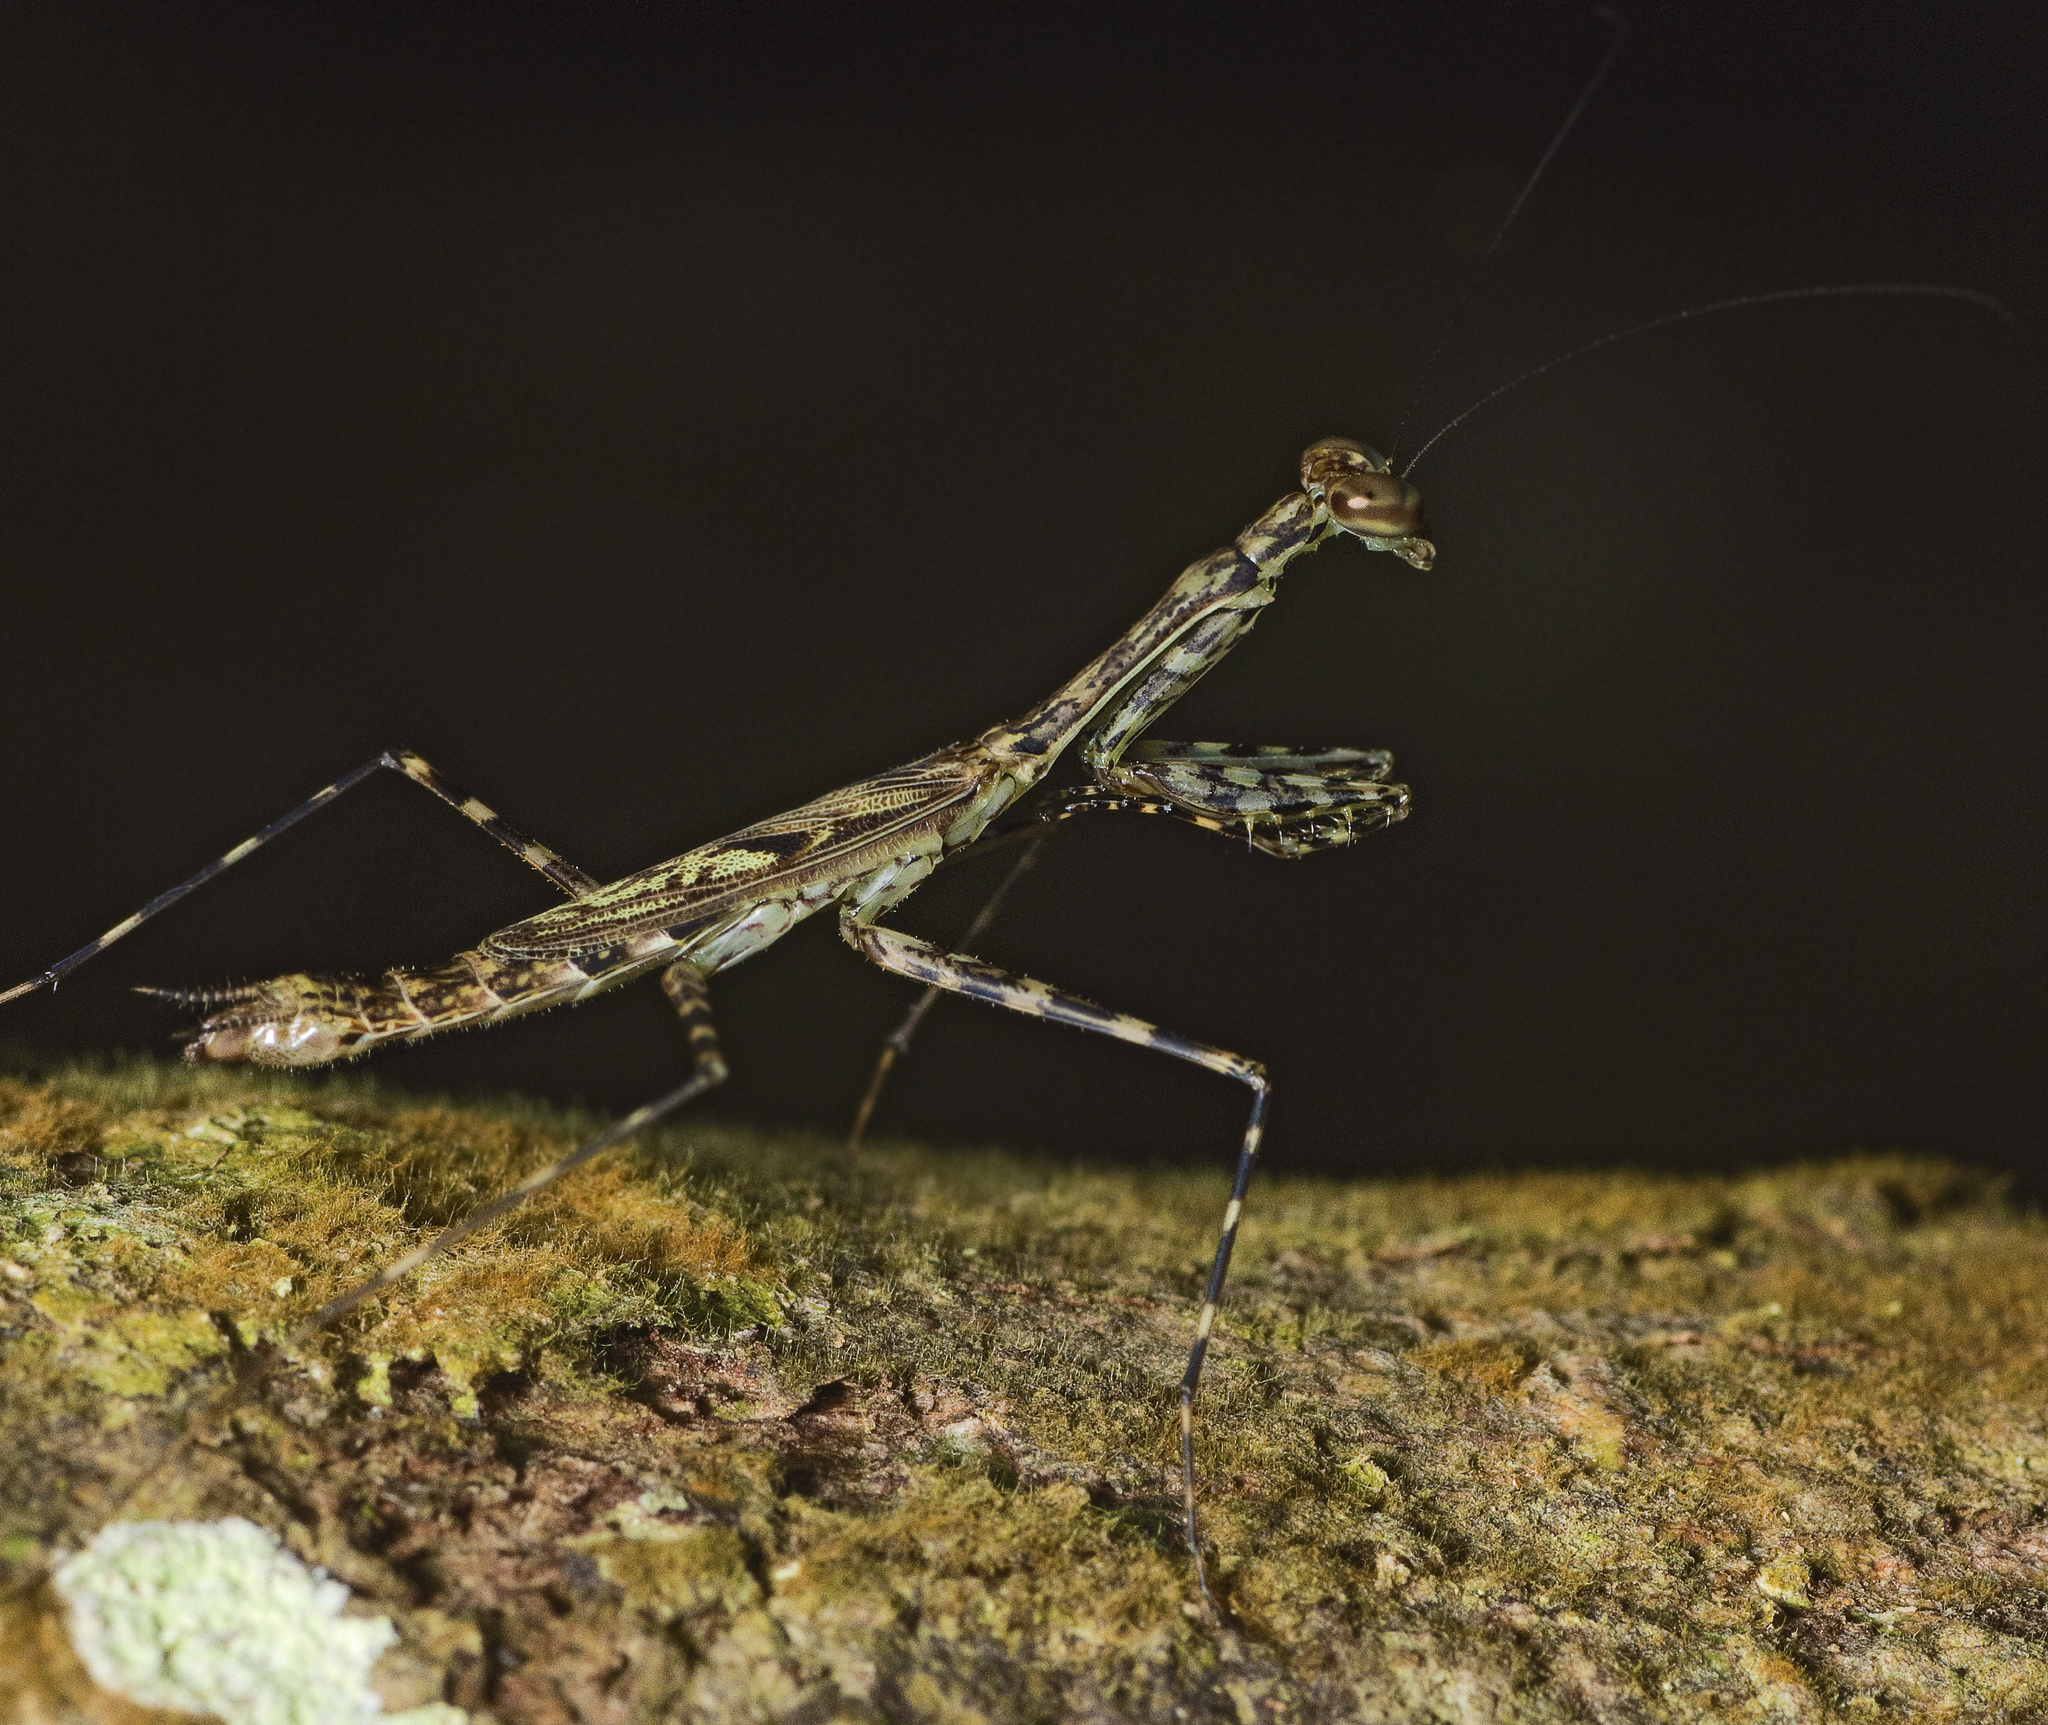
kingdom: Animalia
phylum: Arthropoda
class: Insecta
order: Mantodea
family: Nanomantidae
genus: Ciulfina
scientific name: Ciulfina rentzi
